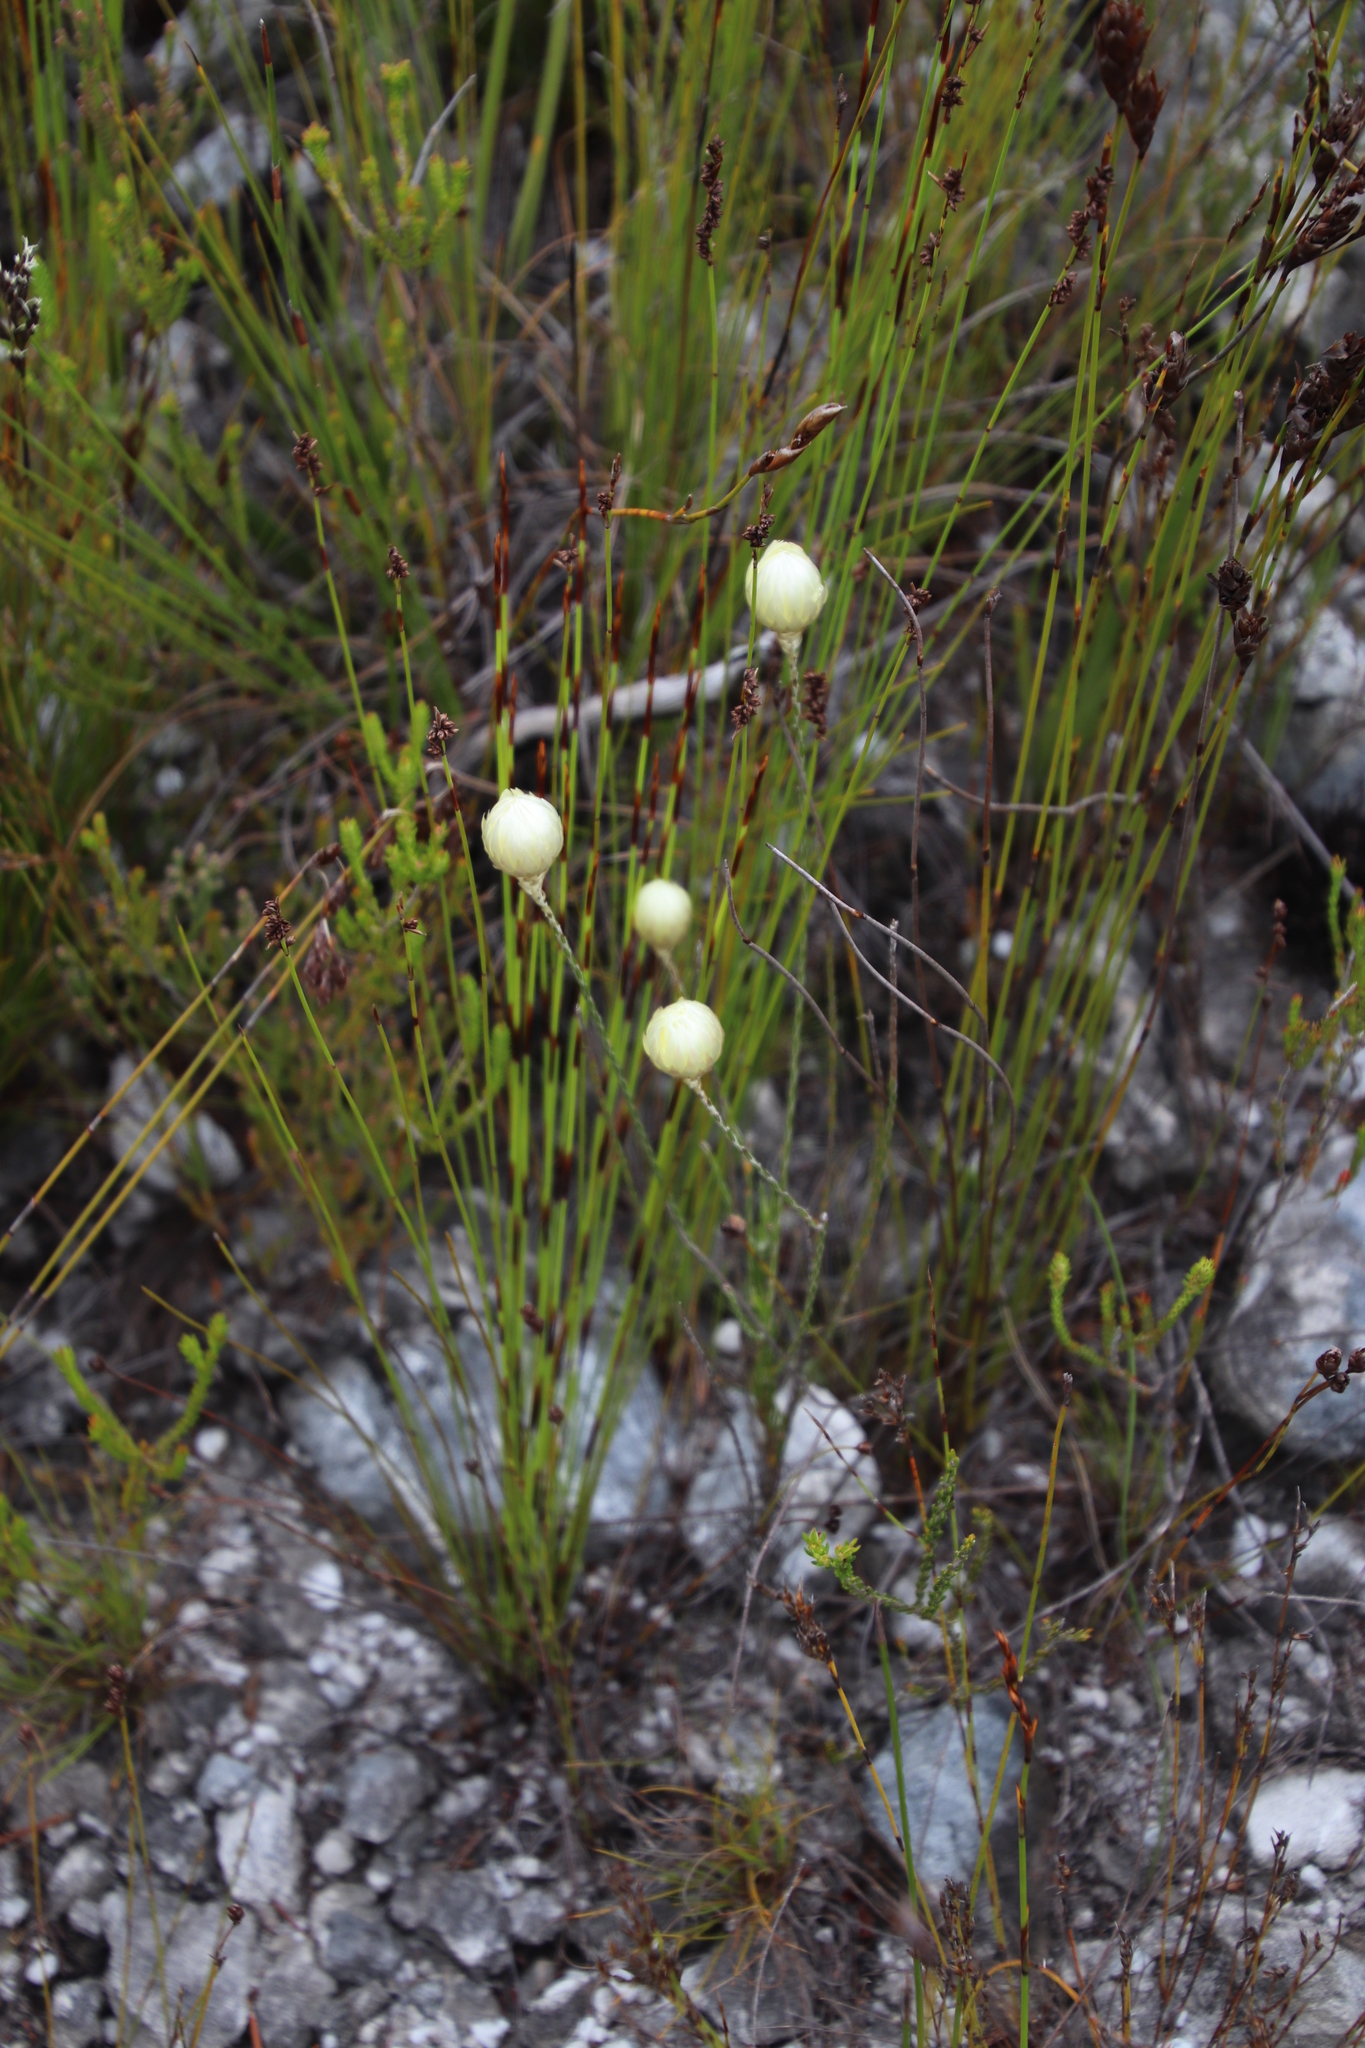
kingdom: Plantae
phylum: Tracheophyta
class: Magnoliopsida
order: Asterales
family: Asteraceae
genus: Edmondia
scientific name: Edmondia sesamoides
